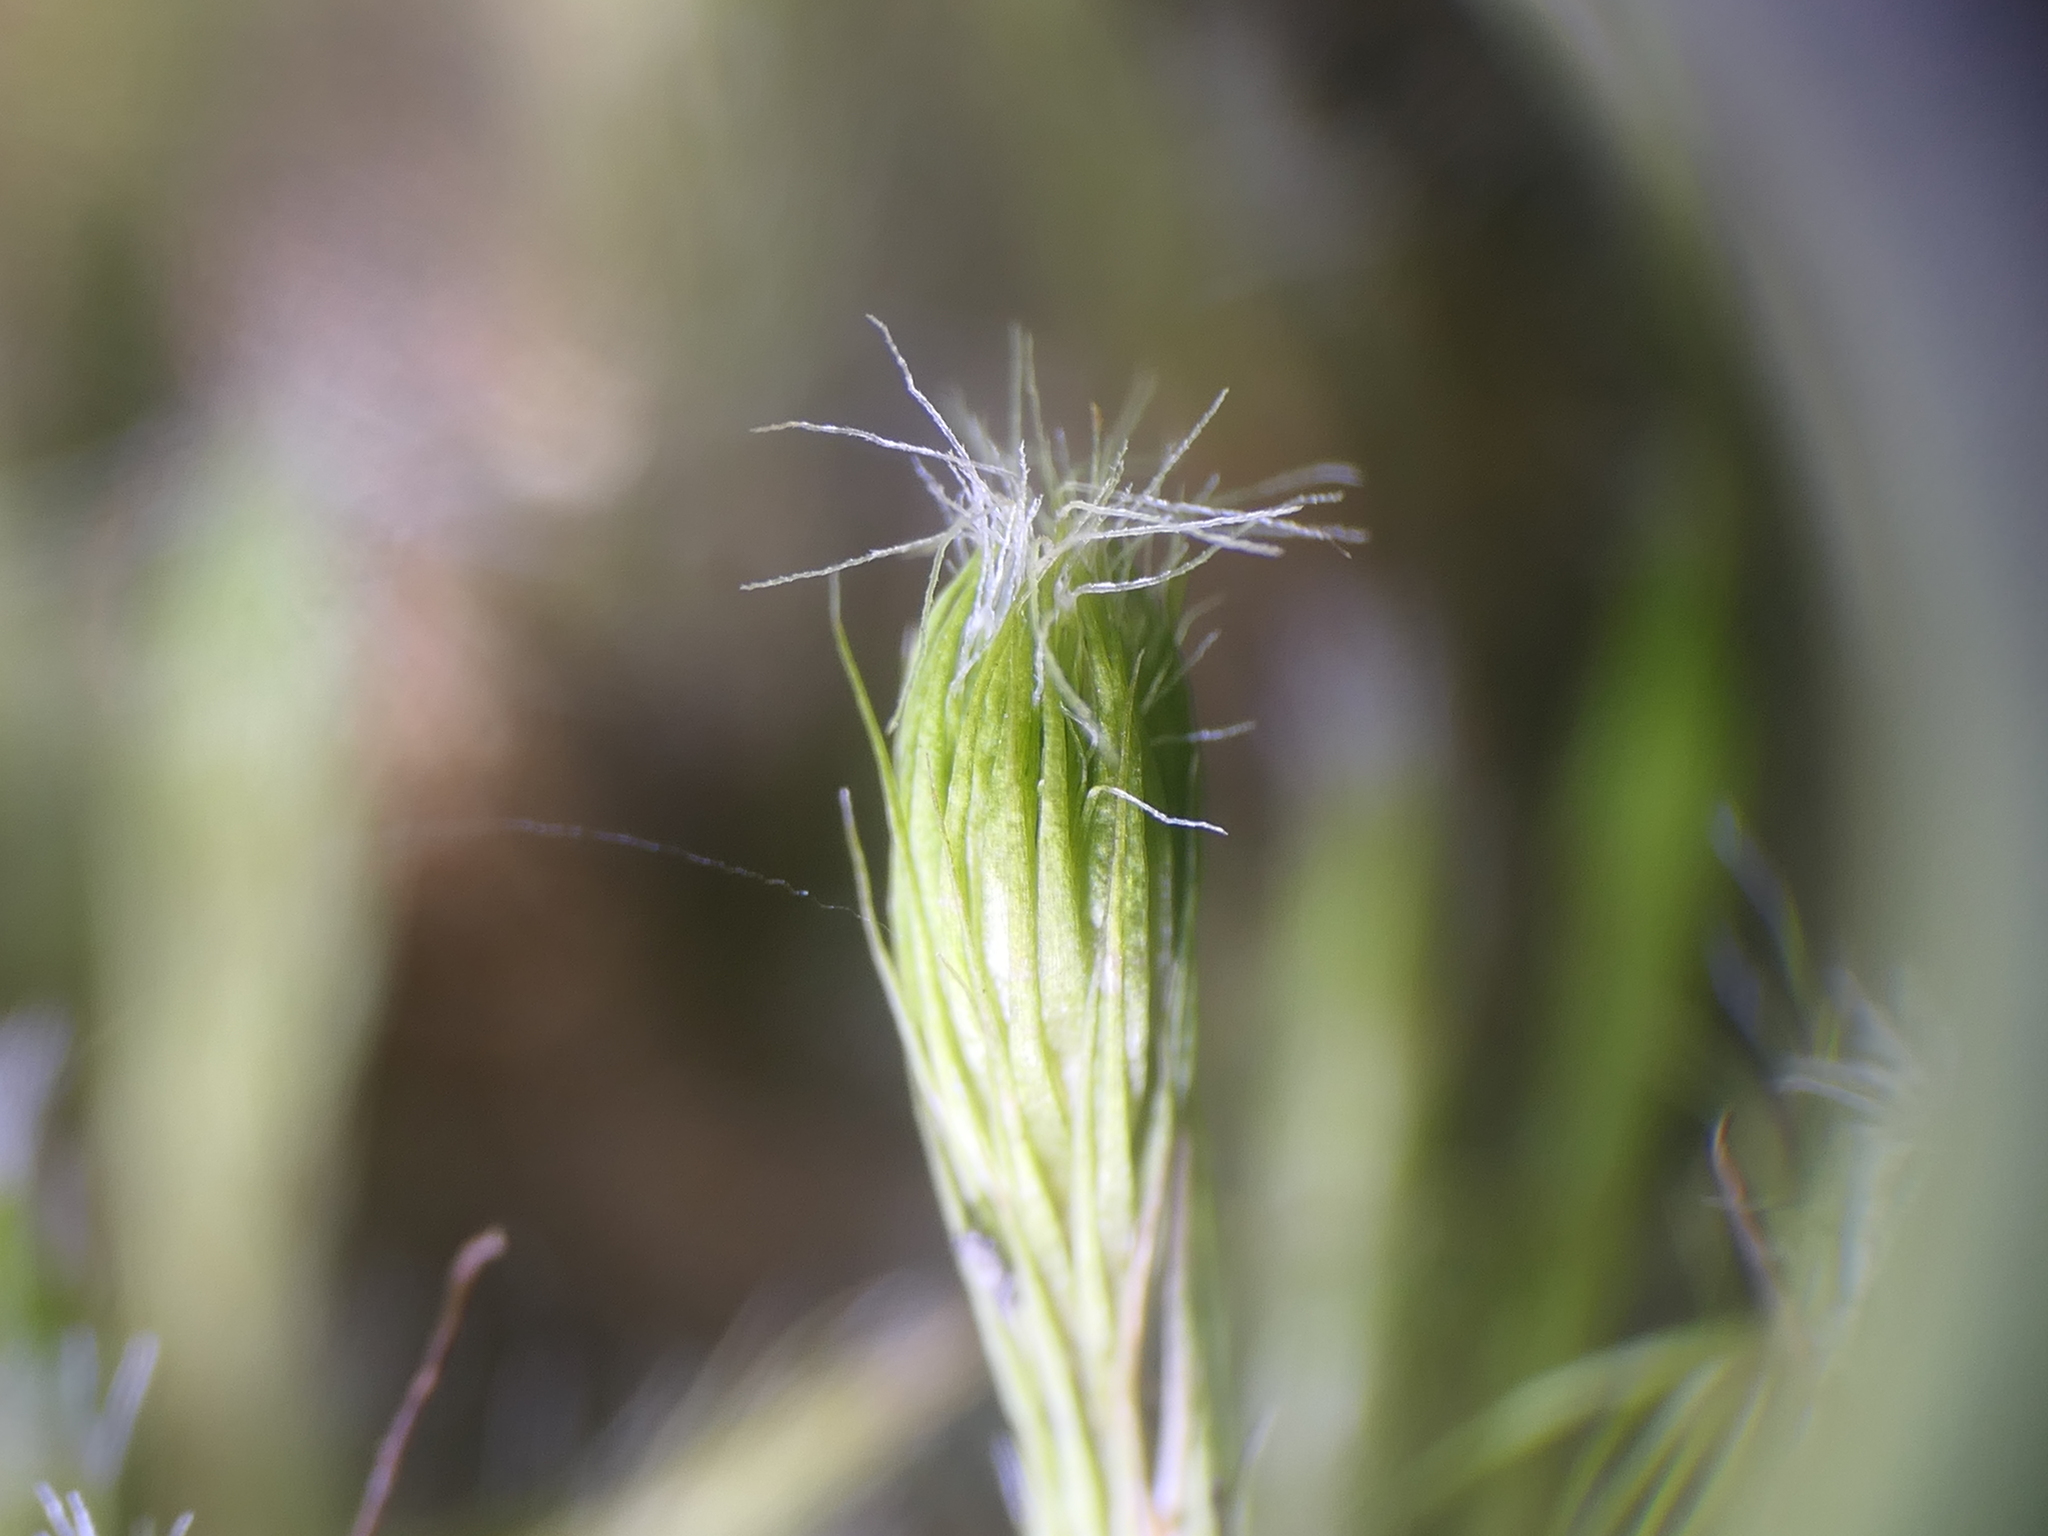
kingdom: Plantae
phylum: Bryophyta
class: Bryopsida
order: Dicranales
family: Leucobryaceae
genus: Campylopus
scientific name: Campylopus introflexus
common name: Heath star moss
